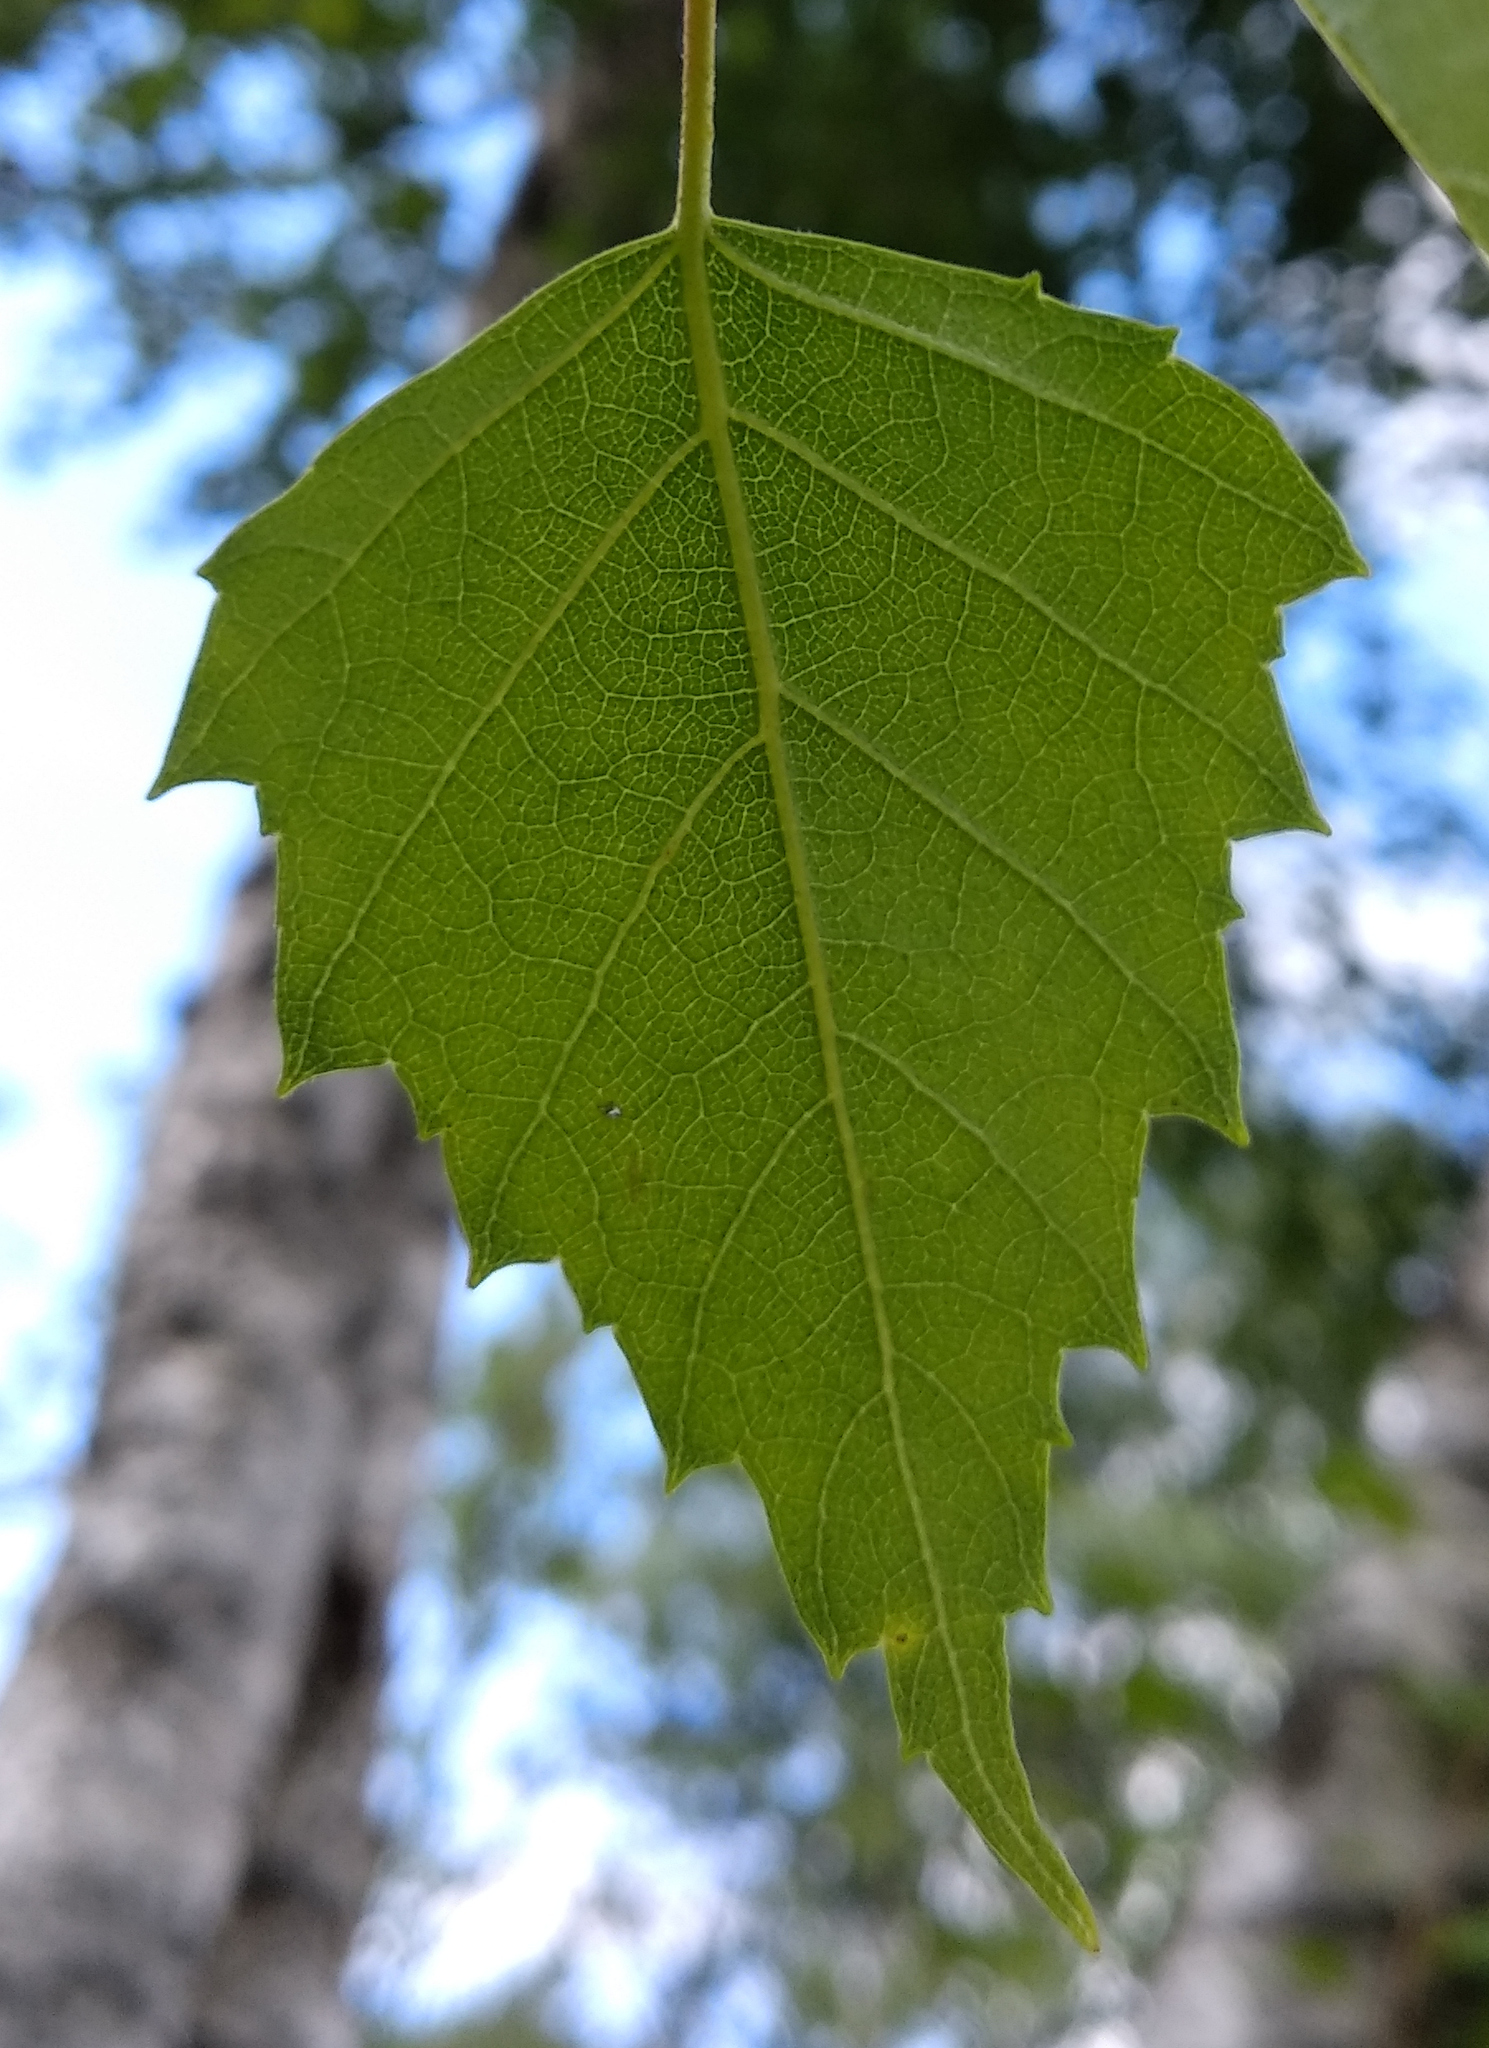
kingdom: Plantae
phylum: Tracheophyta
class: Magnoliopsida
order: Fagales
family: Betulaceae
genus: Betula
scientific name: Betula pendula
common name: Silver birch
